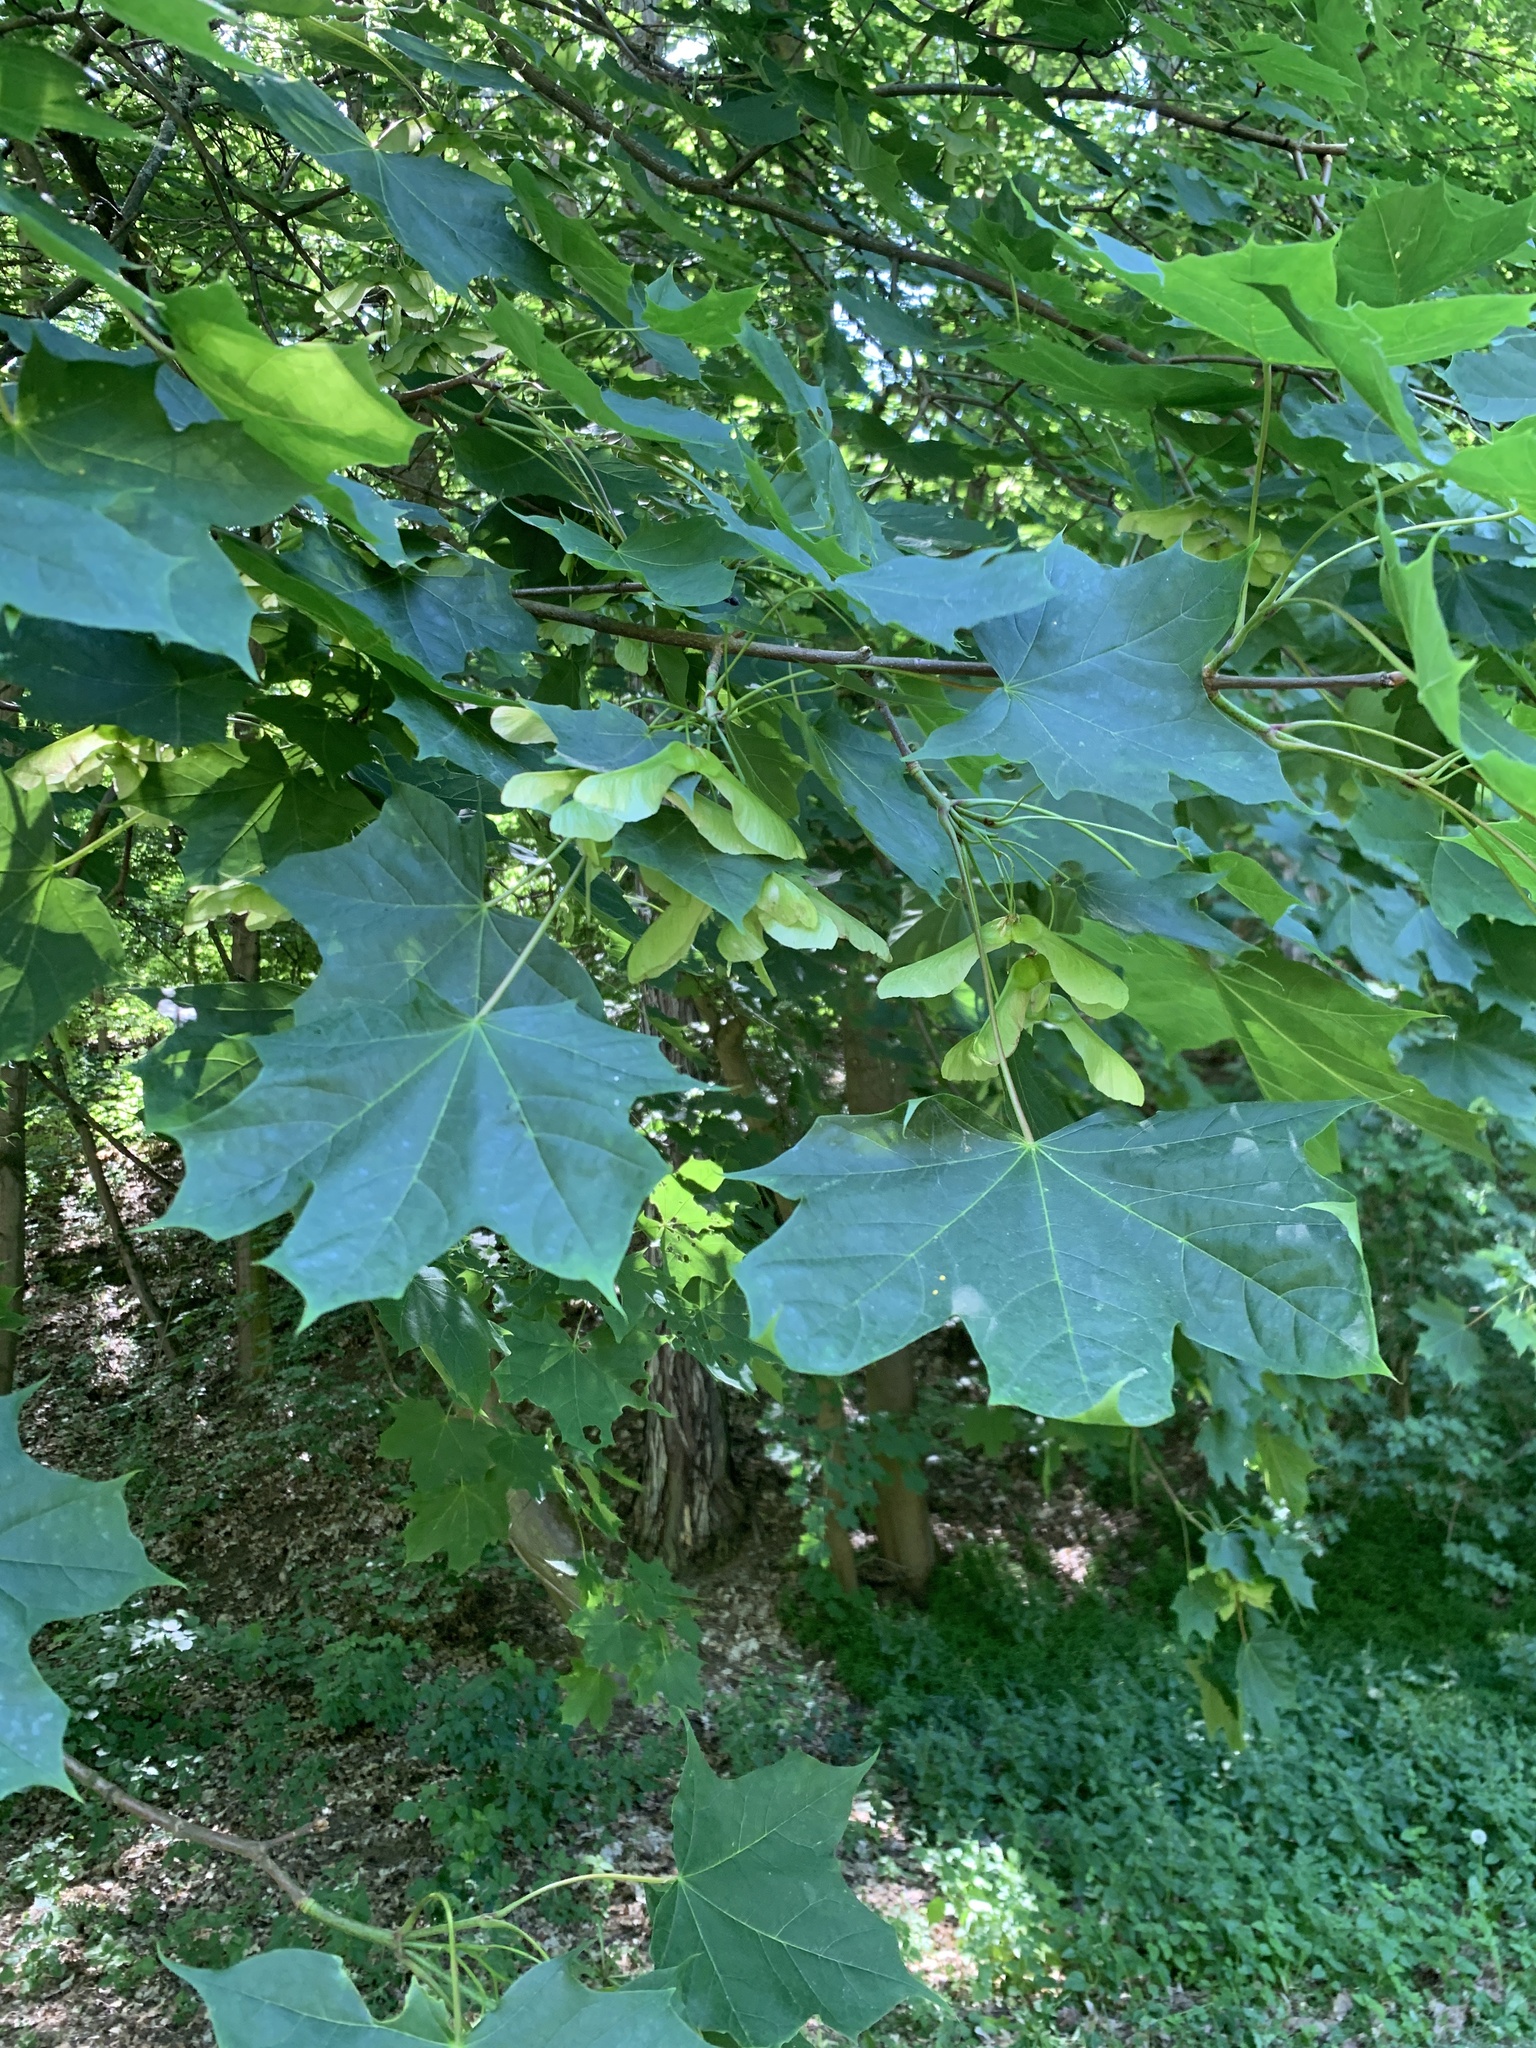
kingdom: Plantae
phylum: Tracheophyta
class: Magnoliopsida
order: Sapindales
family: Sapindaceae
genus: Acer
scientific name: Acer platanoides
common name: Norway maple
